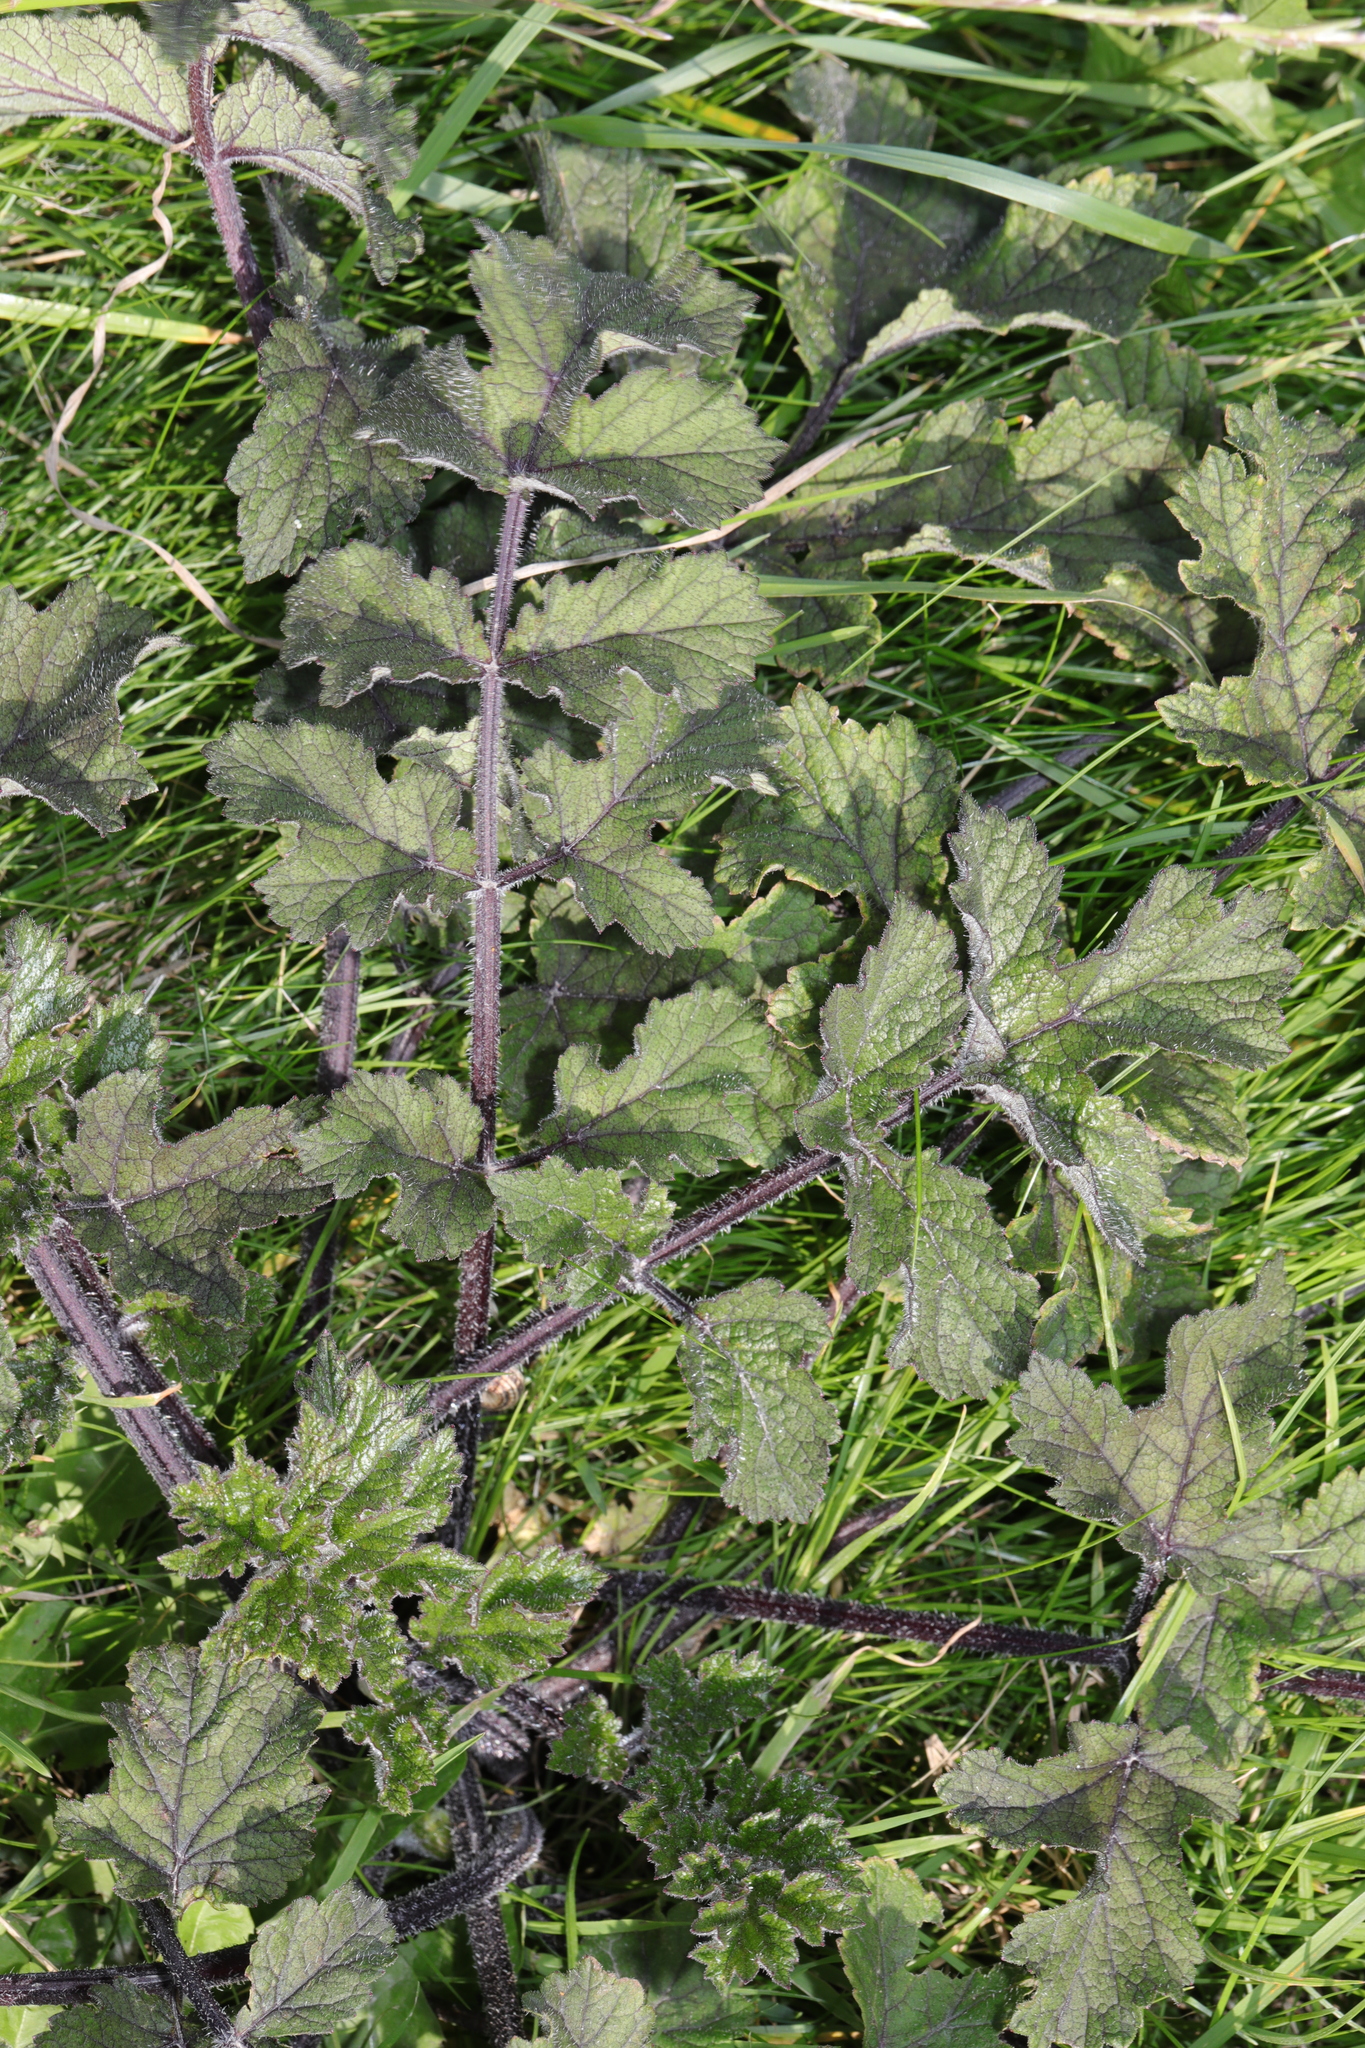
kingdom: Plantae
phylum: Tracheophyta
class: Magnoliopsida
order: Apiales
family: Apiaceae
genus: Heracleum
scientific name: Heracleum sphondylium
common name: Hogweed
